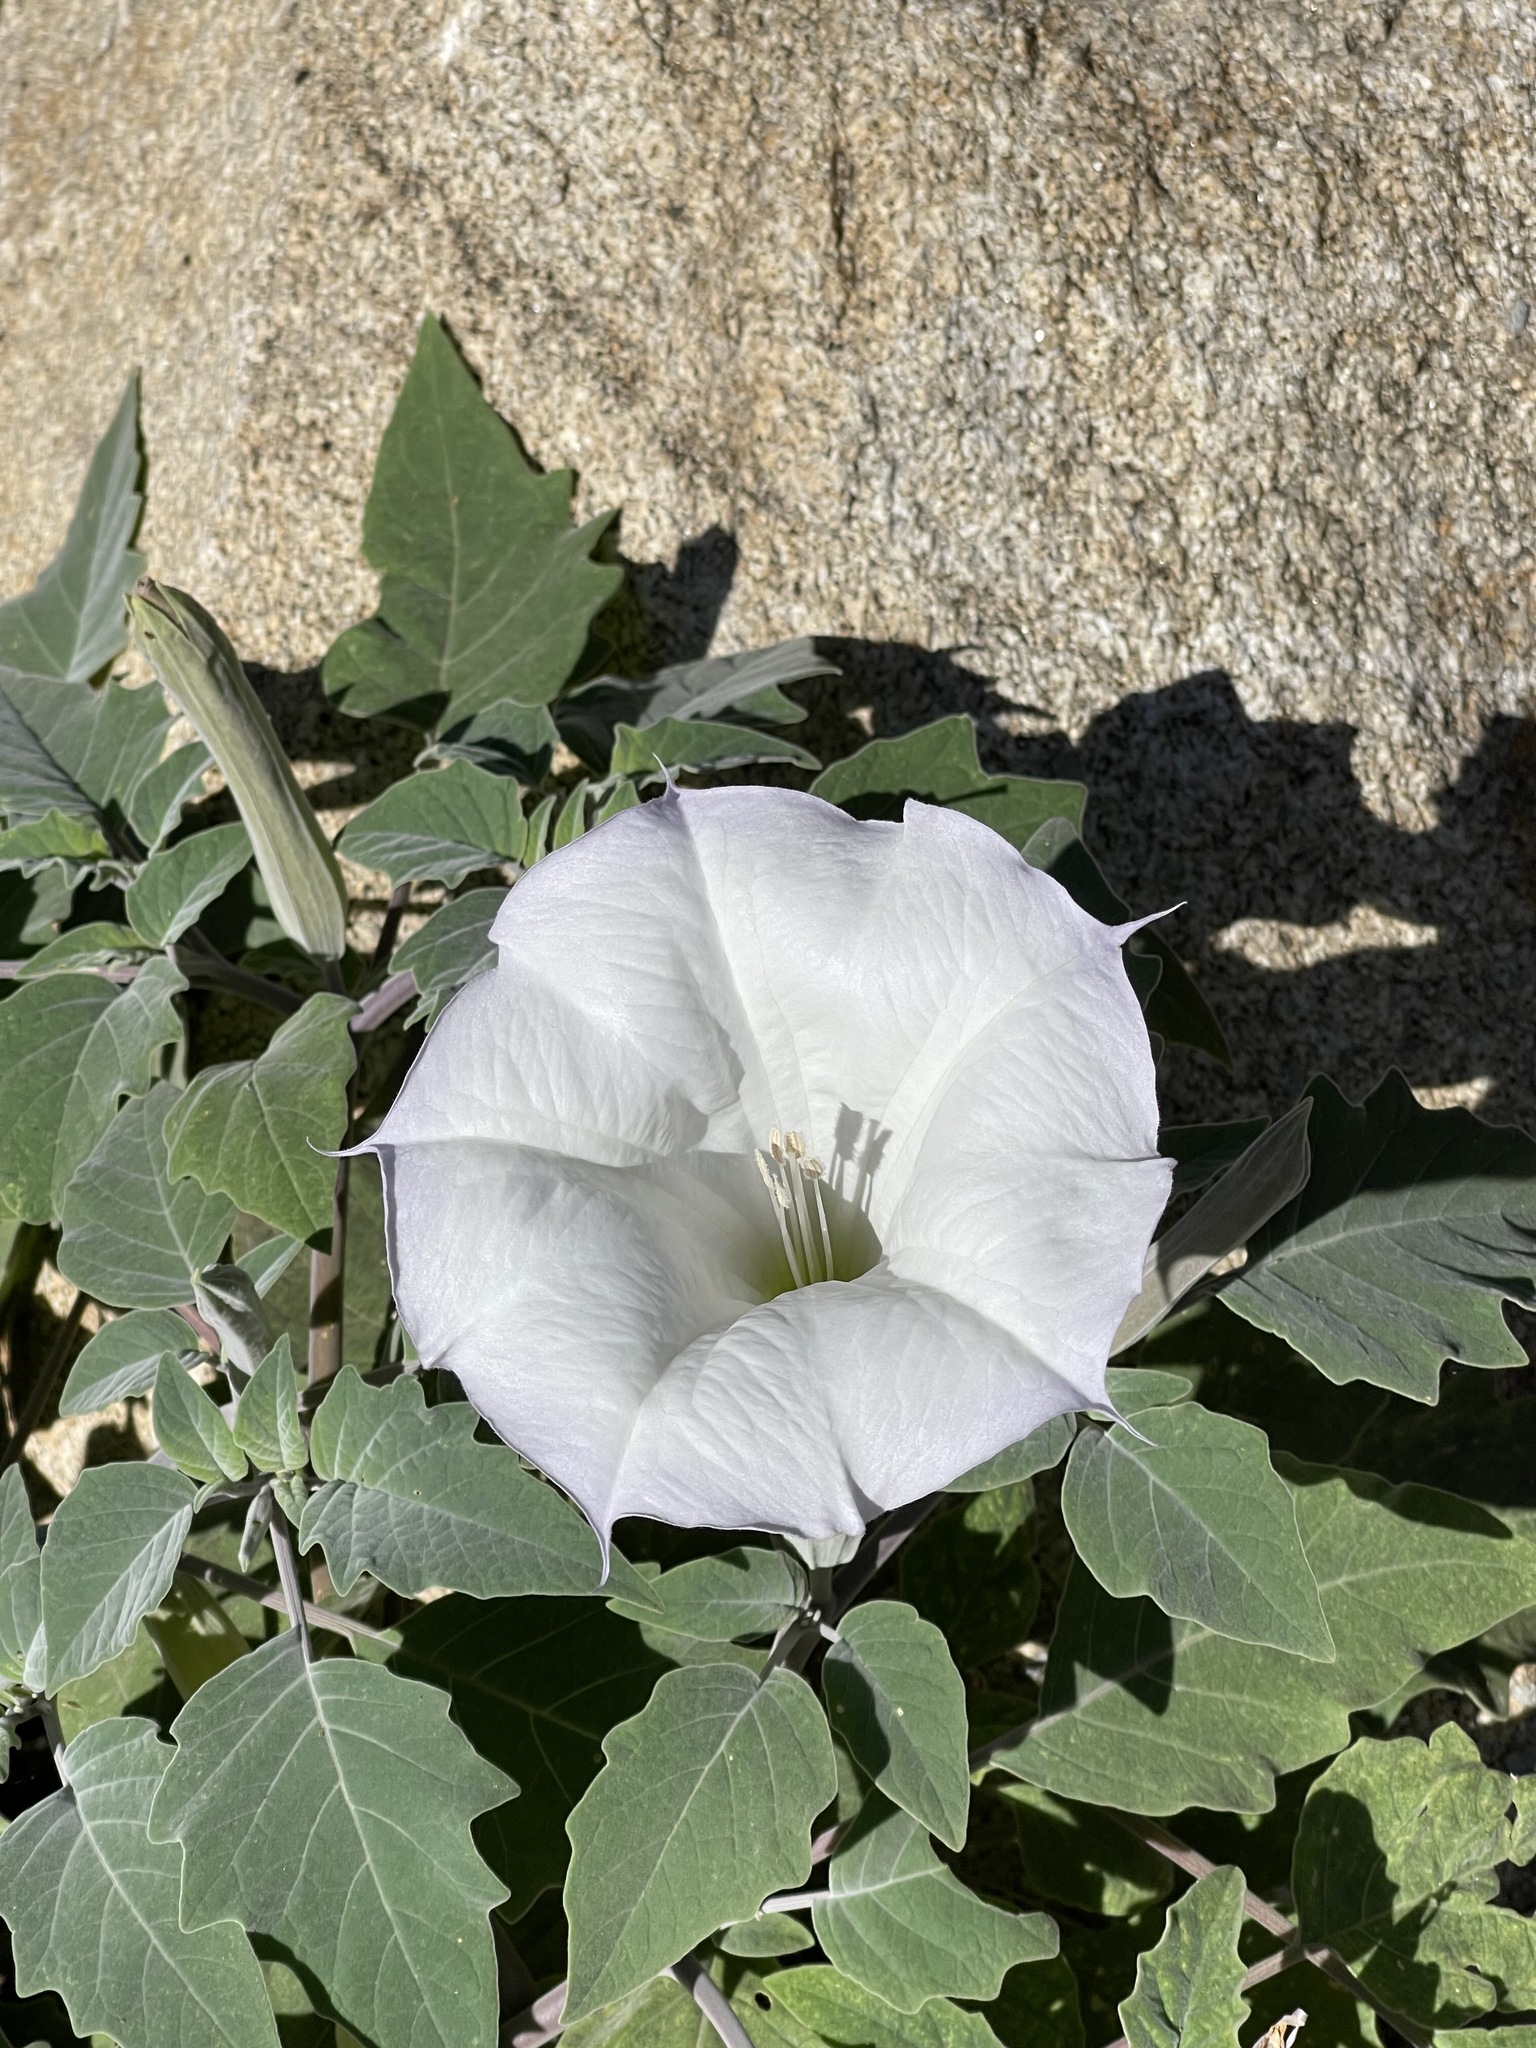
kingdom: Plantae
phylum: Tracheophyta
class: Magnoliopsida
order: Solanales
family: Solanaceae
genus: Datura
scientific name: Datura wrightii
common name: Sacred thorn-apple
